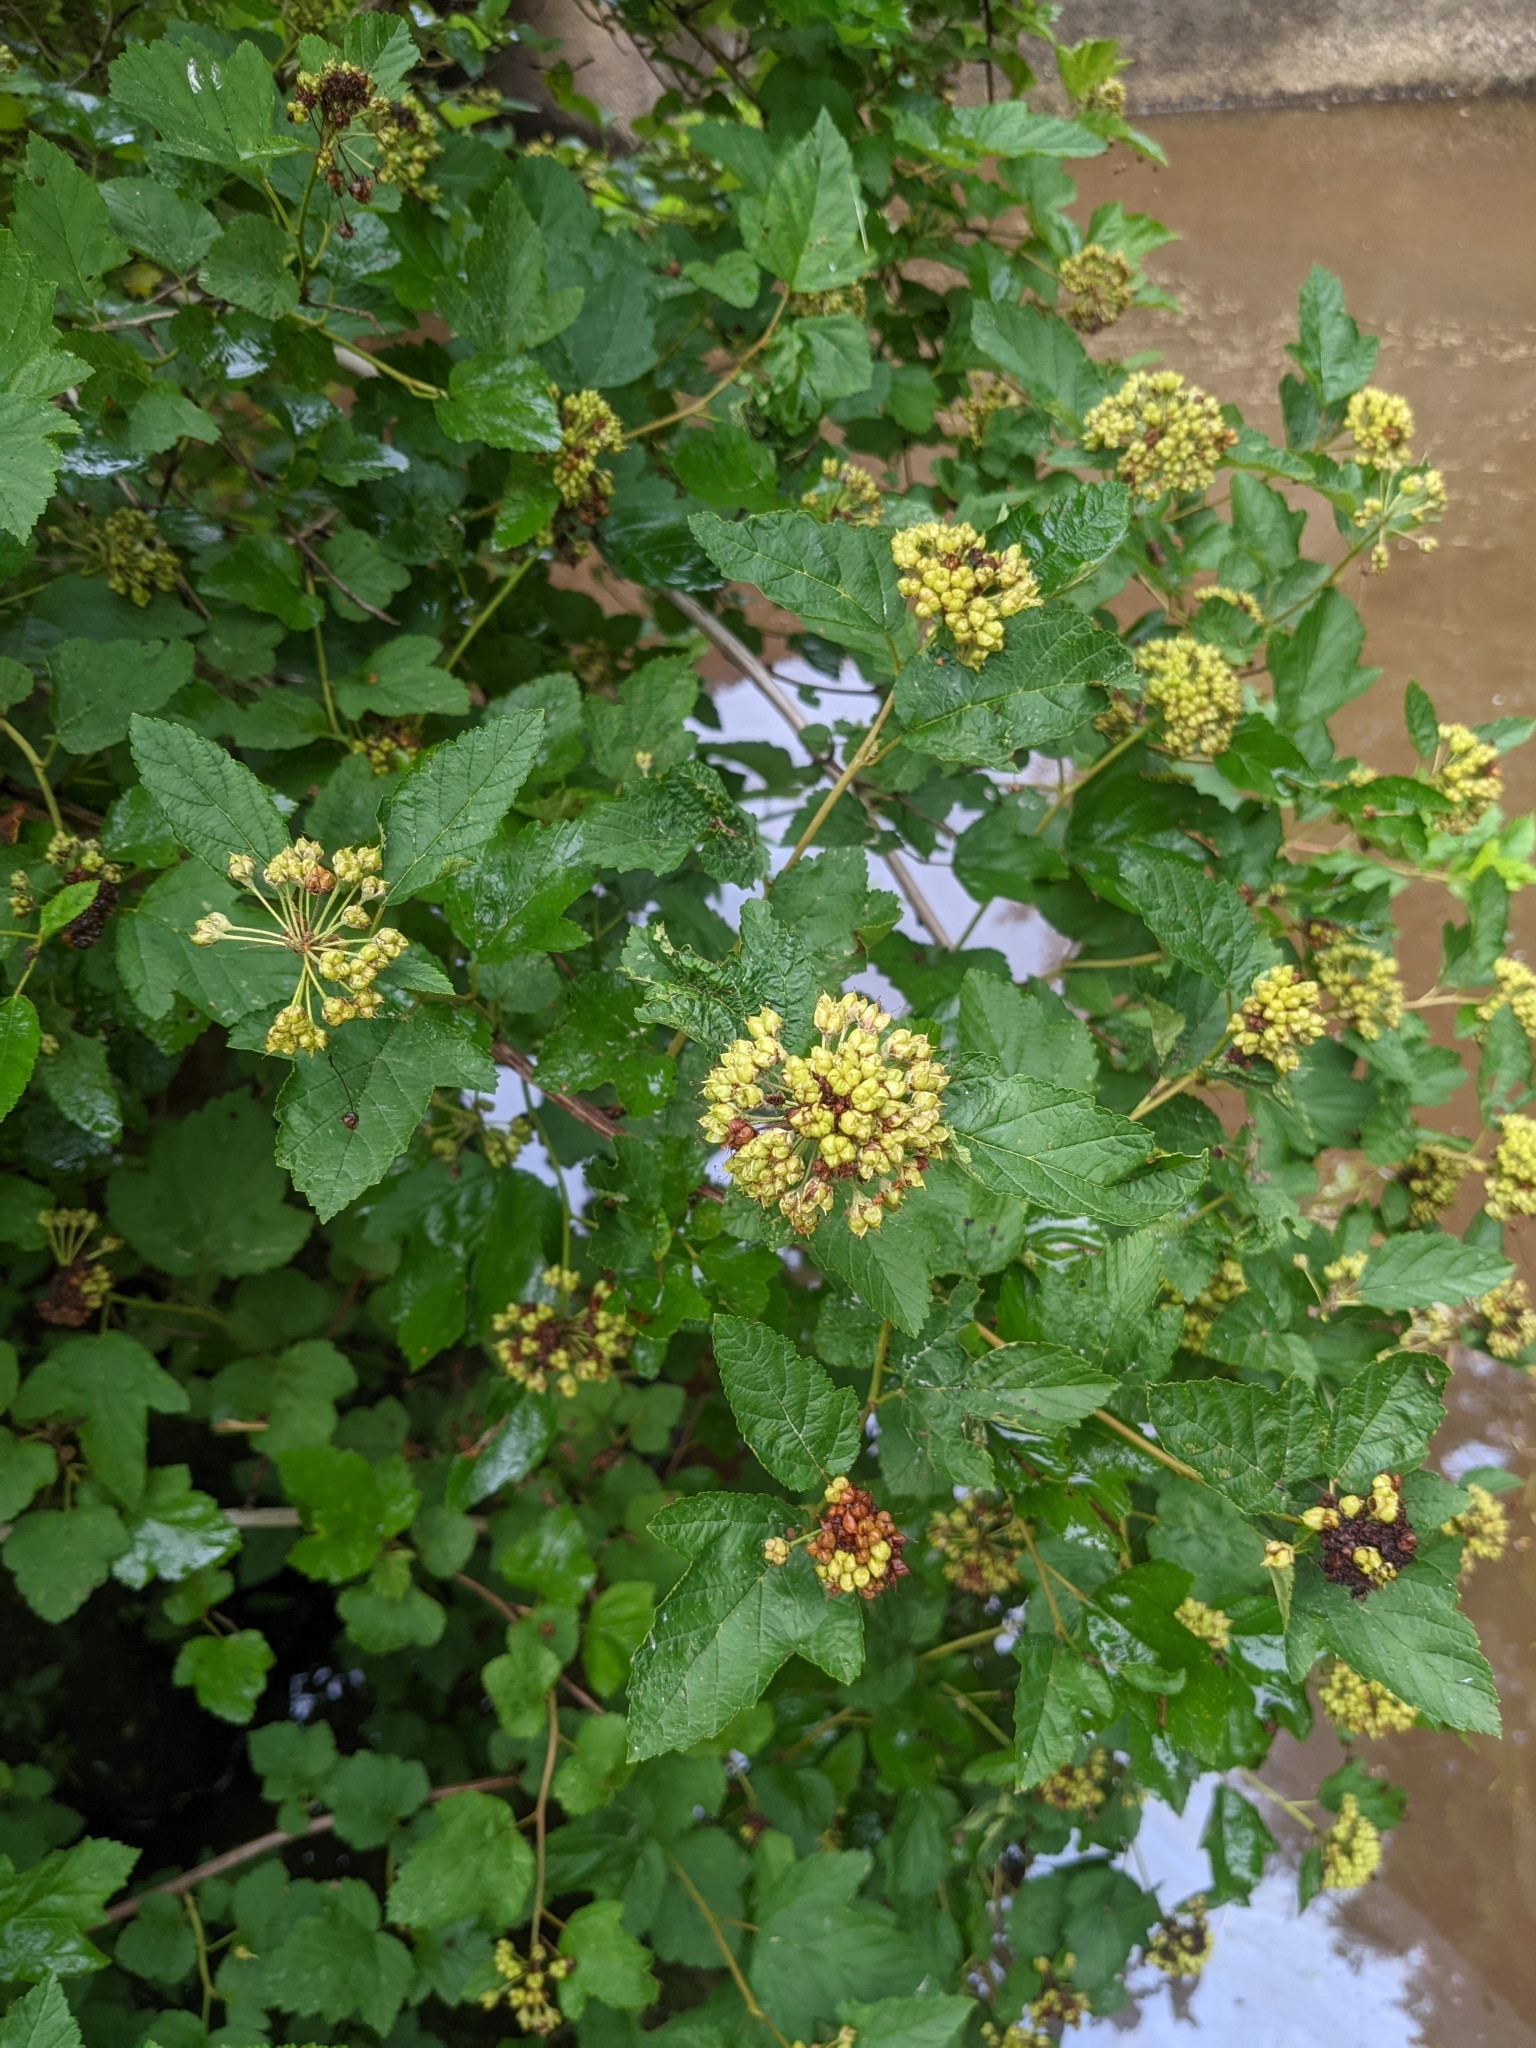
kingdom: Plantae
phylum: Tracheophyta
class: Magnoliopsida
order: Rosales
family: Rosaceae
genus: Physocarpus
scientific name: Physocarpus opulifolius
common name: Ninebark
